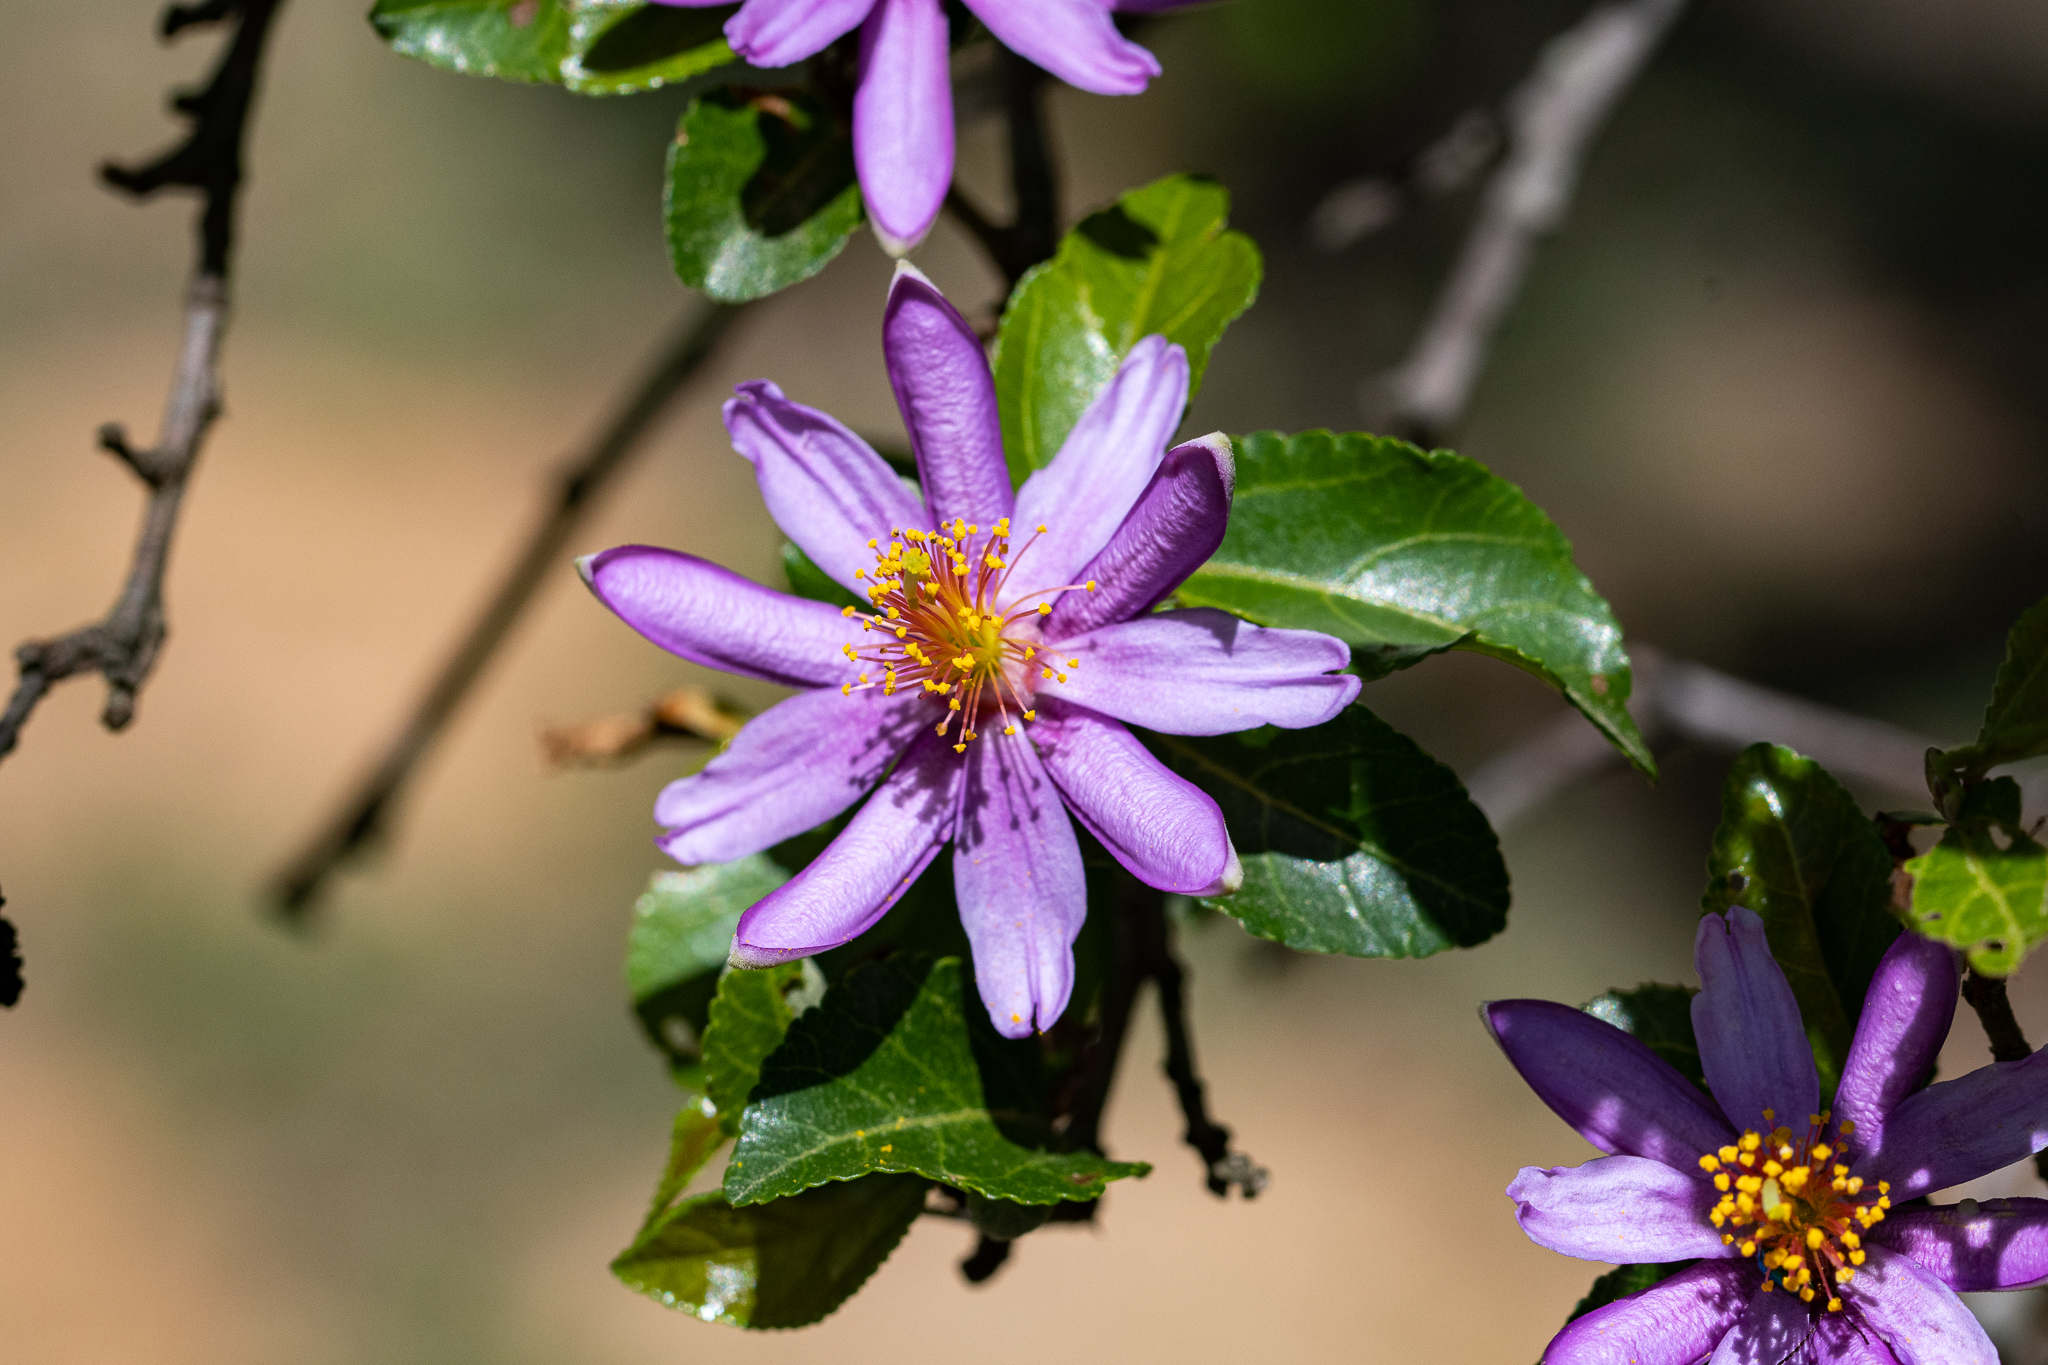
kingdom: Plantae
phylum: Tracheophyta
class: Magnoliopsida
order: Malvales
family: Malvaceae
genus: Grewia
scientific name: Grewia occidentalis
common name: Crossberry
